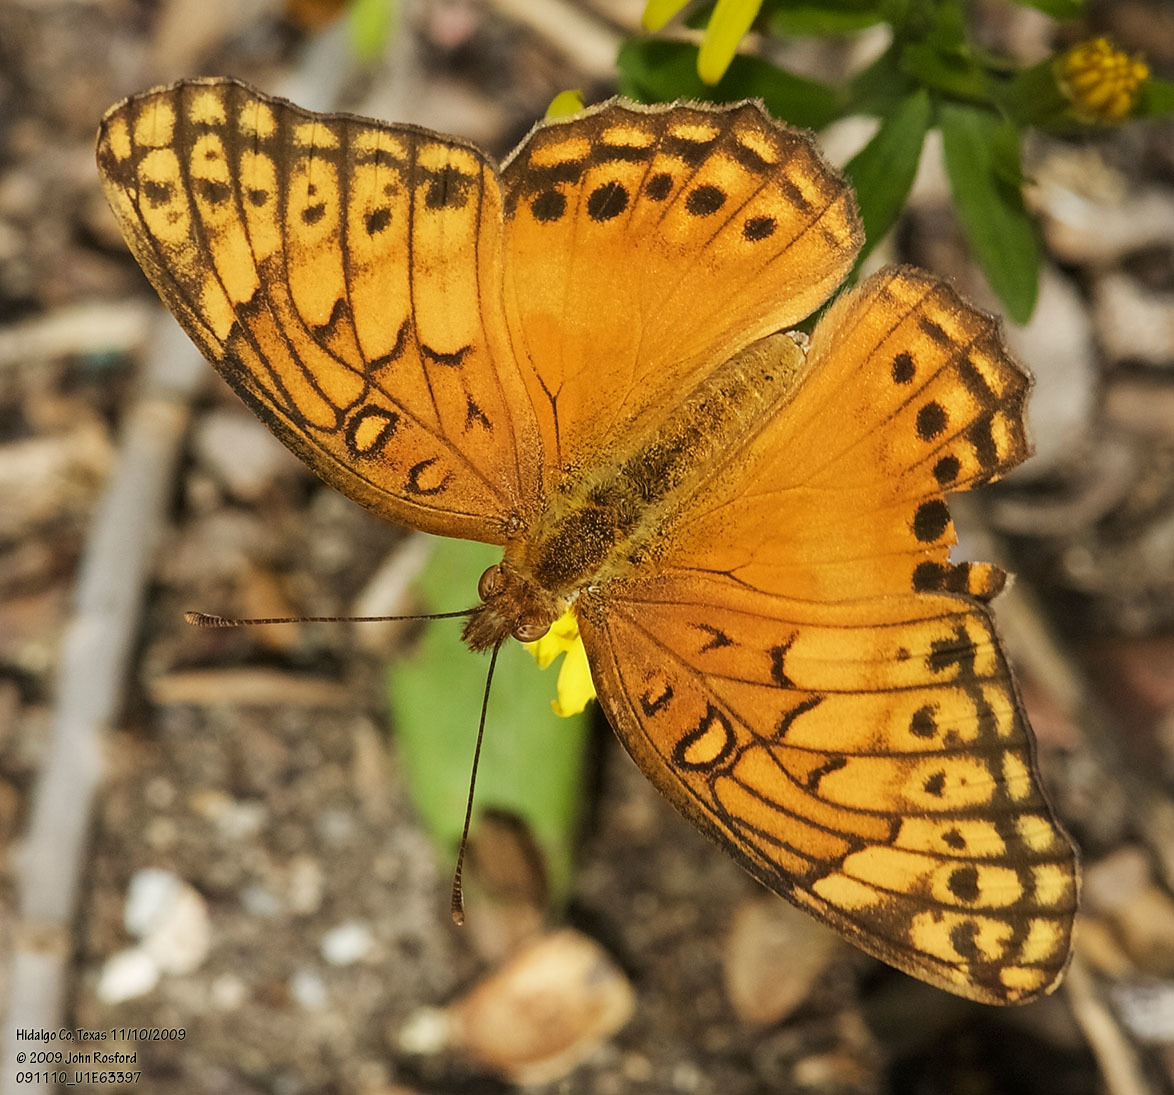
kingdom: Animalia
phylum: Arthropoda
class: Insecta
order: Lepidoptera
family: Nymphalidae
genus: Euptoieta
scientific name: Euptoieta hegesia
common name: Mexican fritillary
